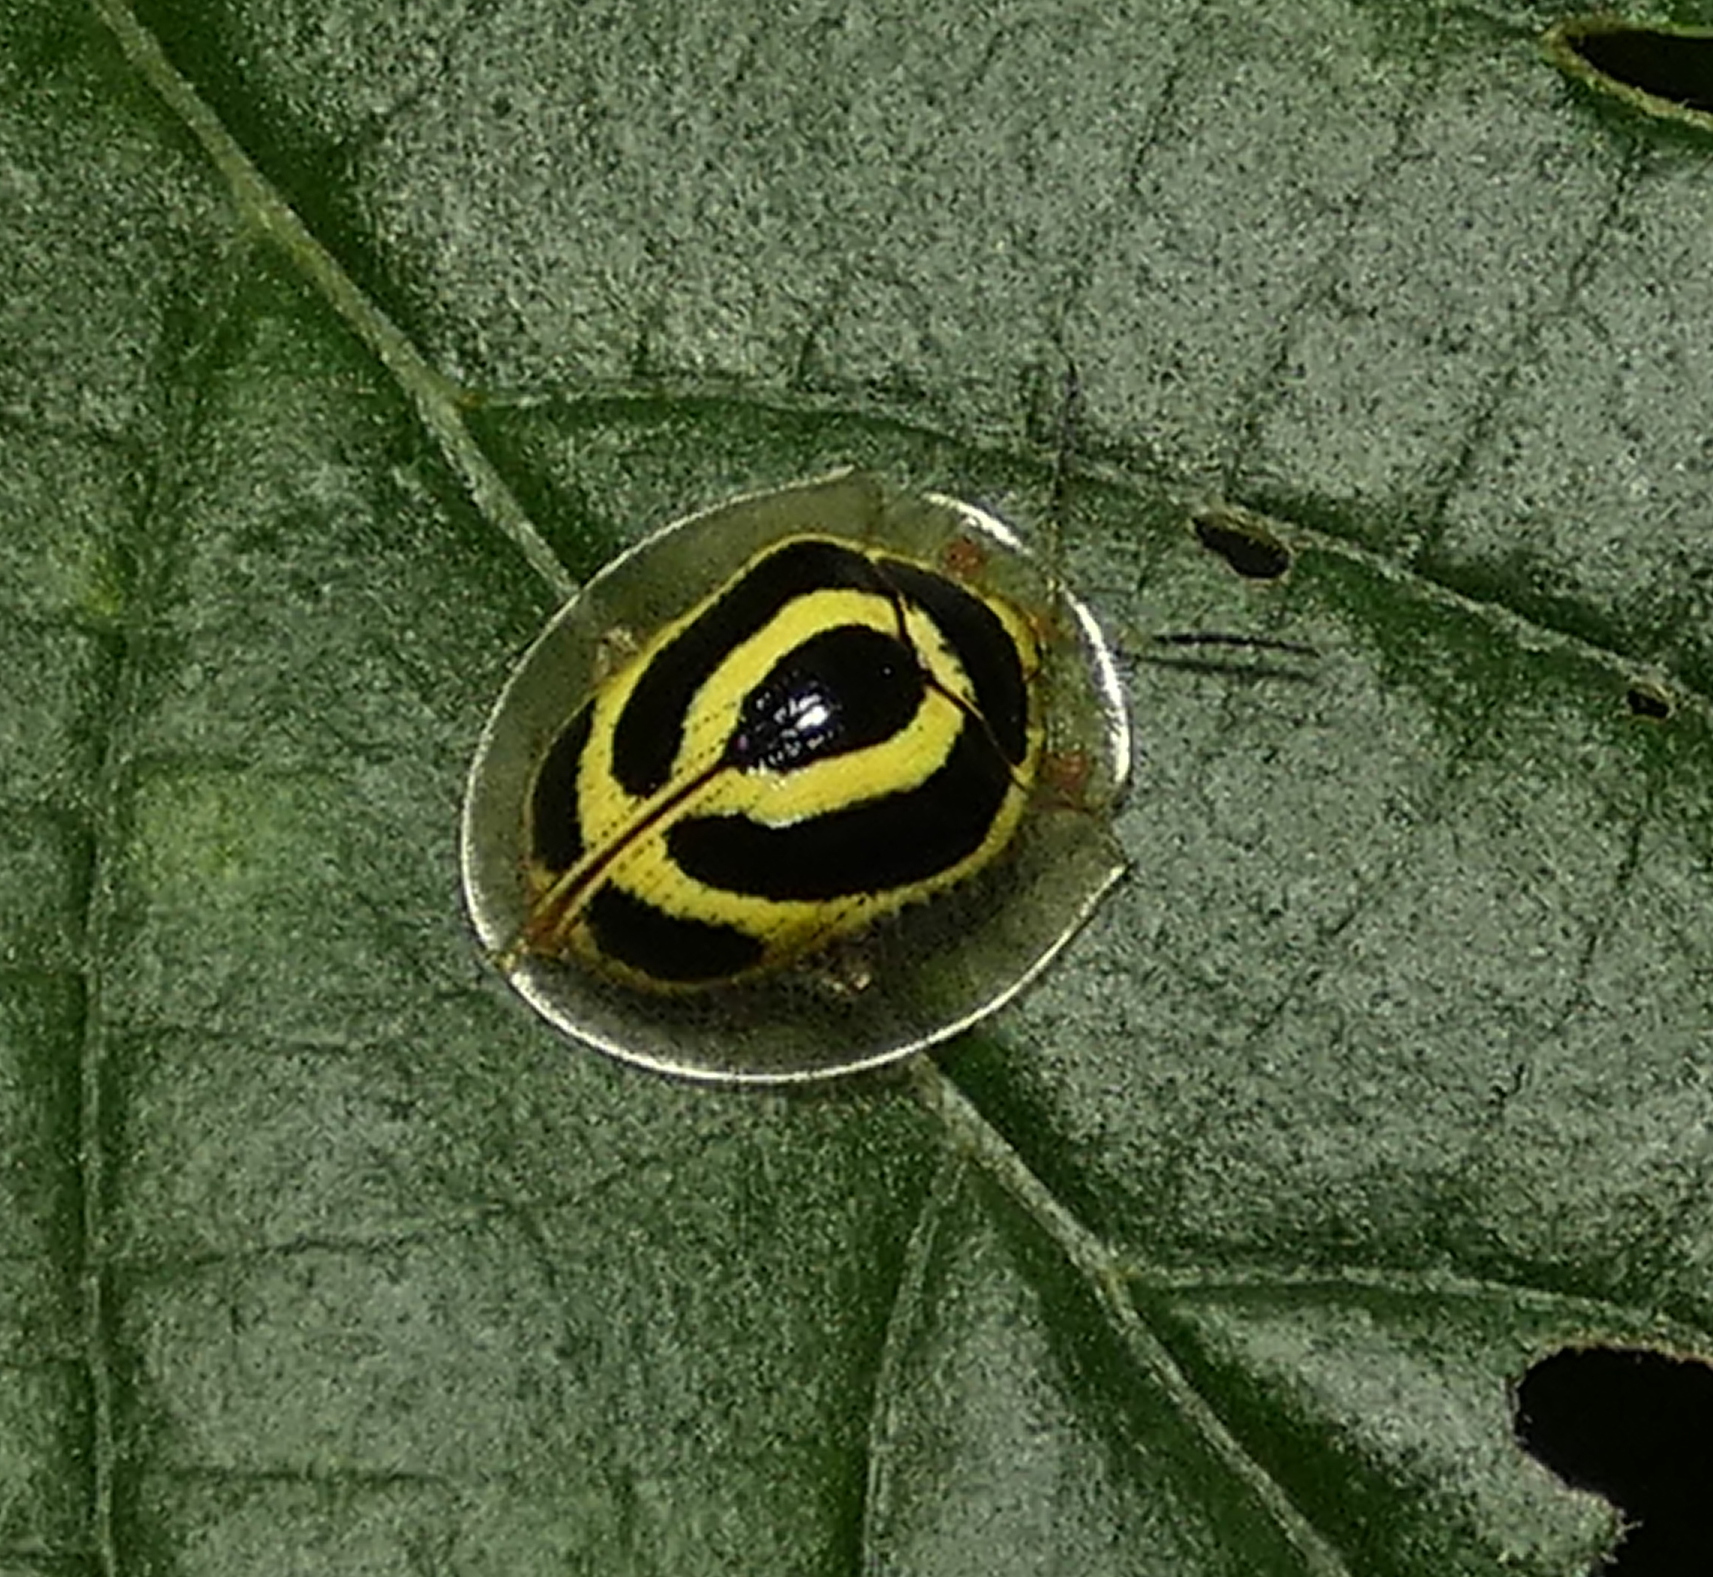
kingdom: Animalia
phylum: Arthropoda
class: Insecta
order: Coleoptera
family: Chrysomelidae
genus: Coptocycla
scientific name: Coptocycla arcuata
